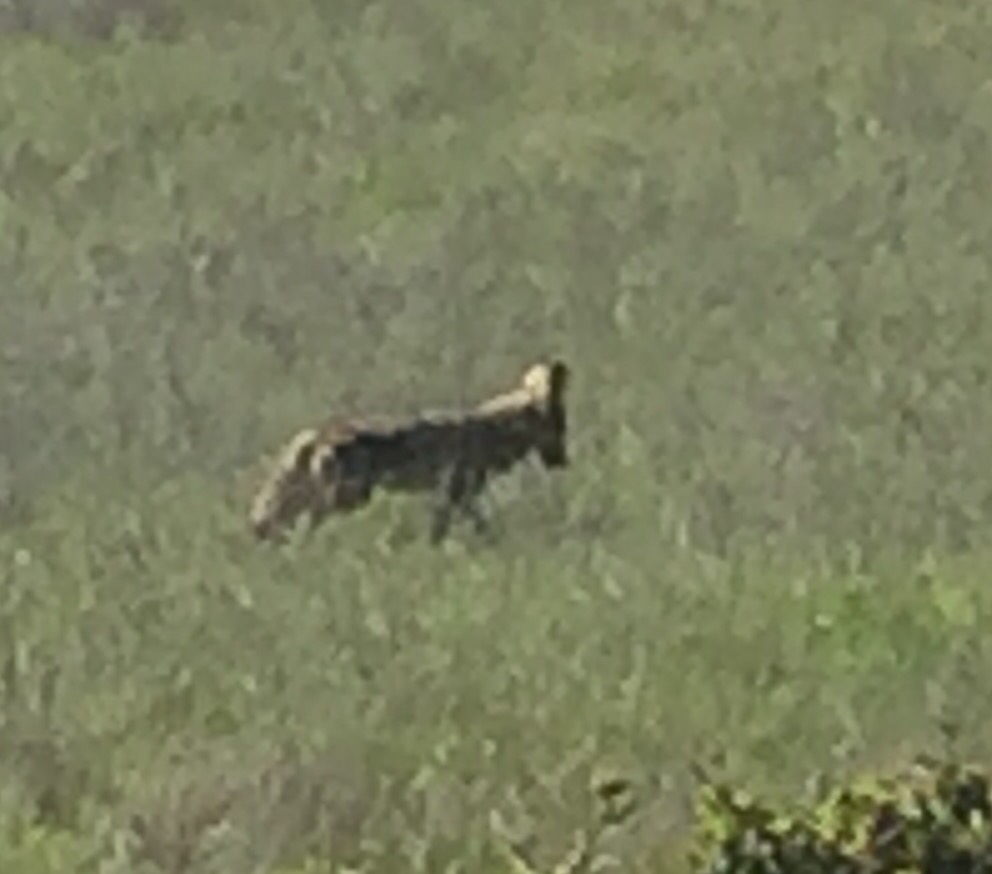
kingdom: Animalia
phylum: Chordata
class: Mammalia
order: Carnivora
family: Canidae
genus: Canis
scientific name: Canis latrans
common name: Coyote
